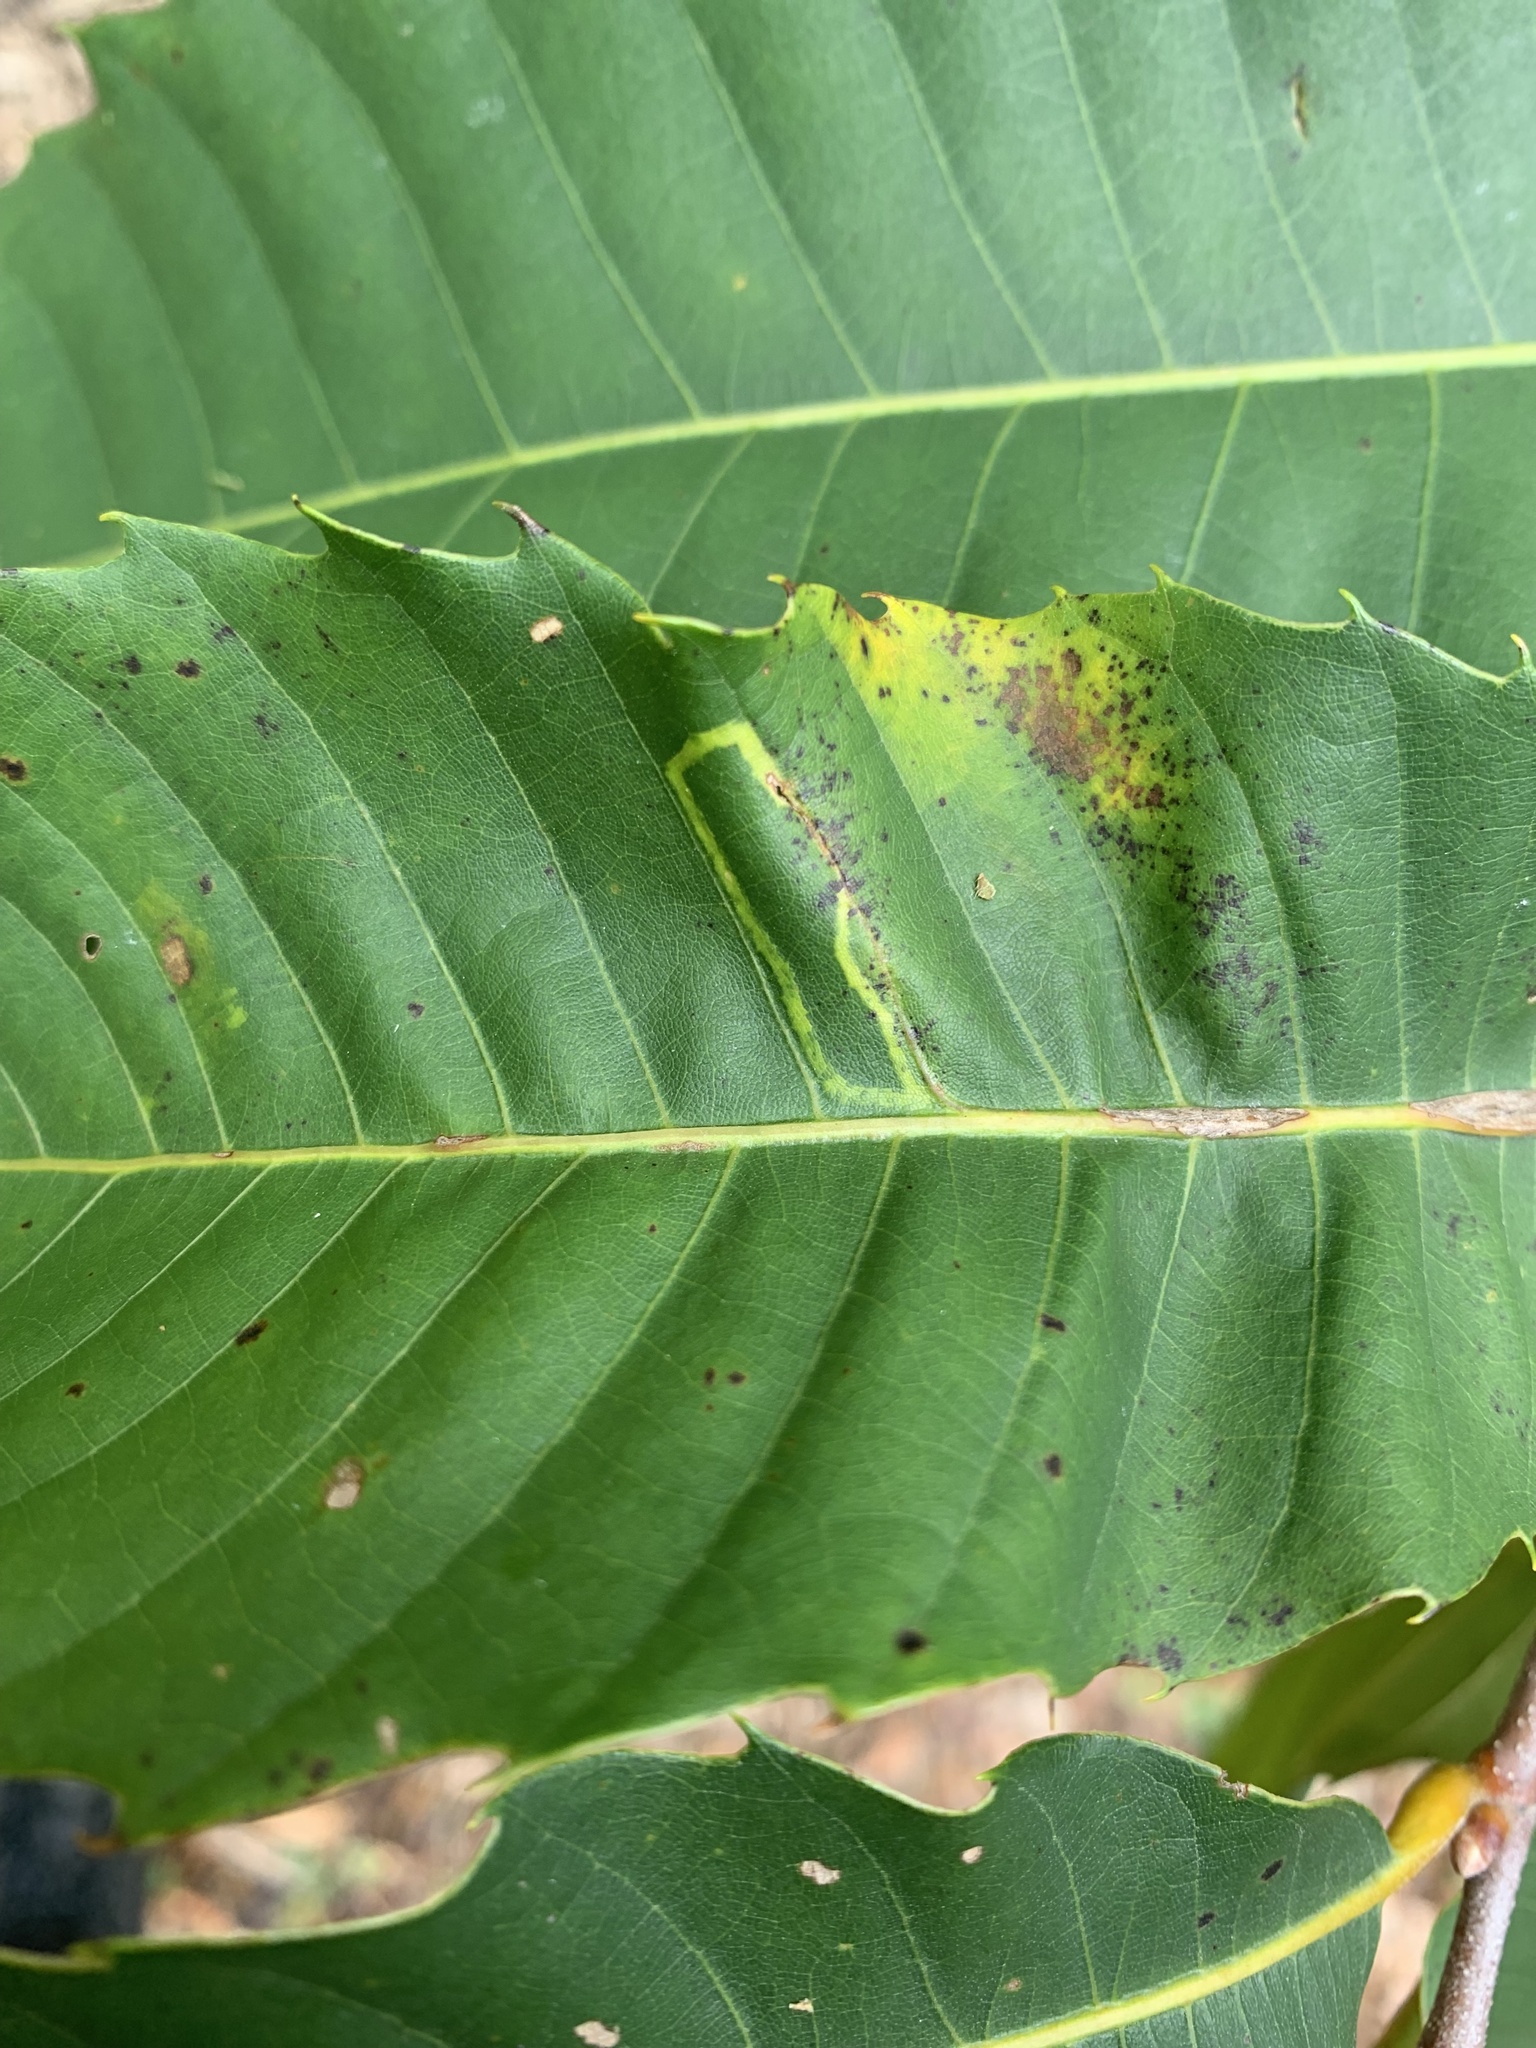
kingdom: Animalia
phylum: Arthropoda
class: Insecta
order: Lepidoptera
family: Gracillariidae
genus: Neurobathra
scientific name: Neurobathra strigifinitella
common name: Finite-channeled leafminer moth
